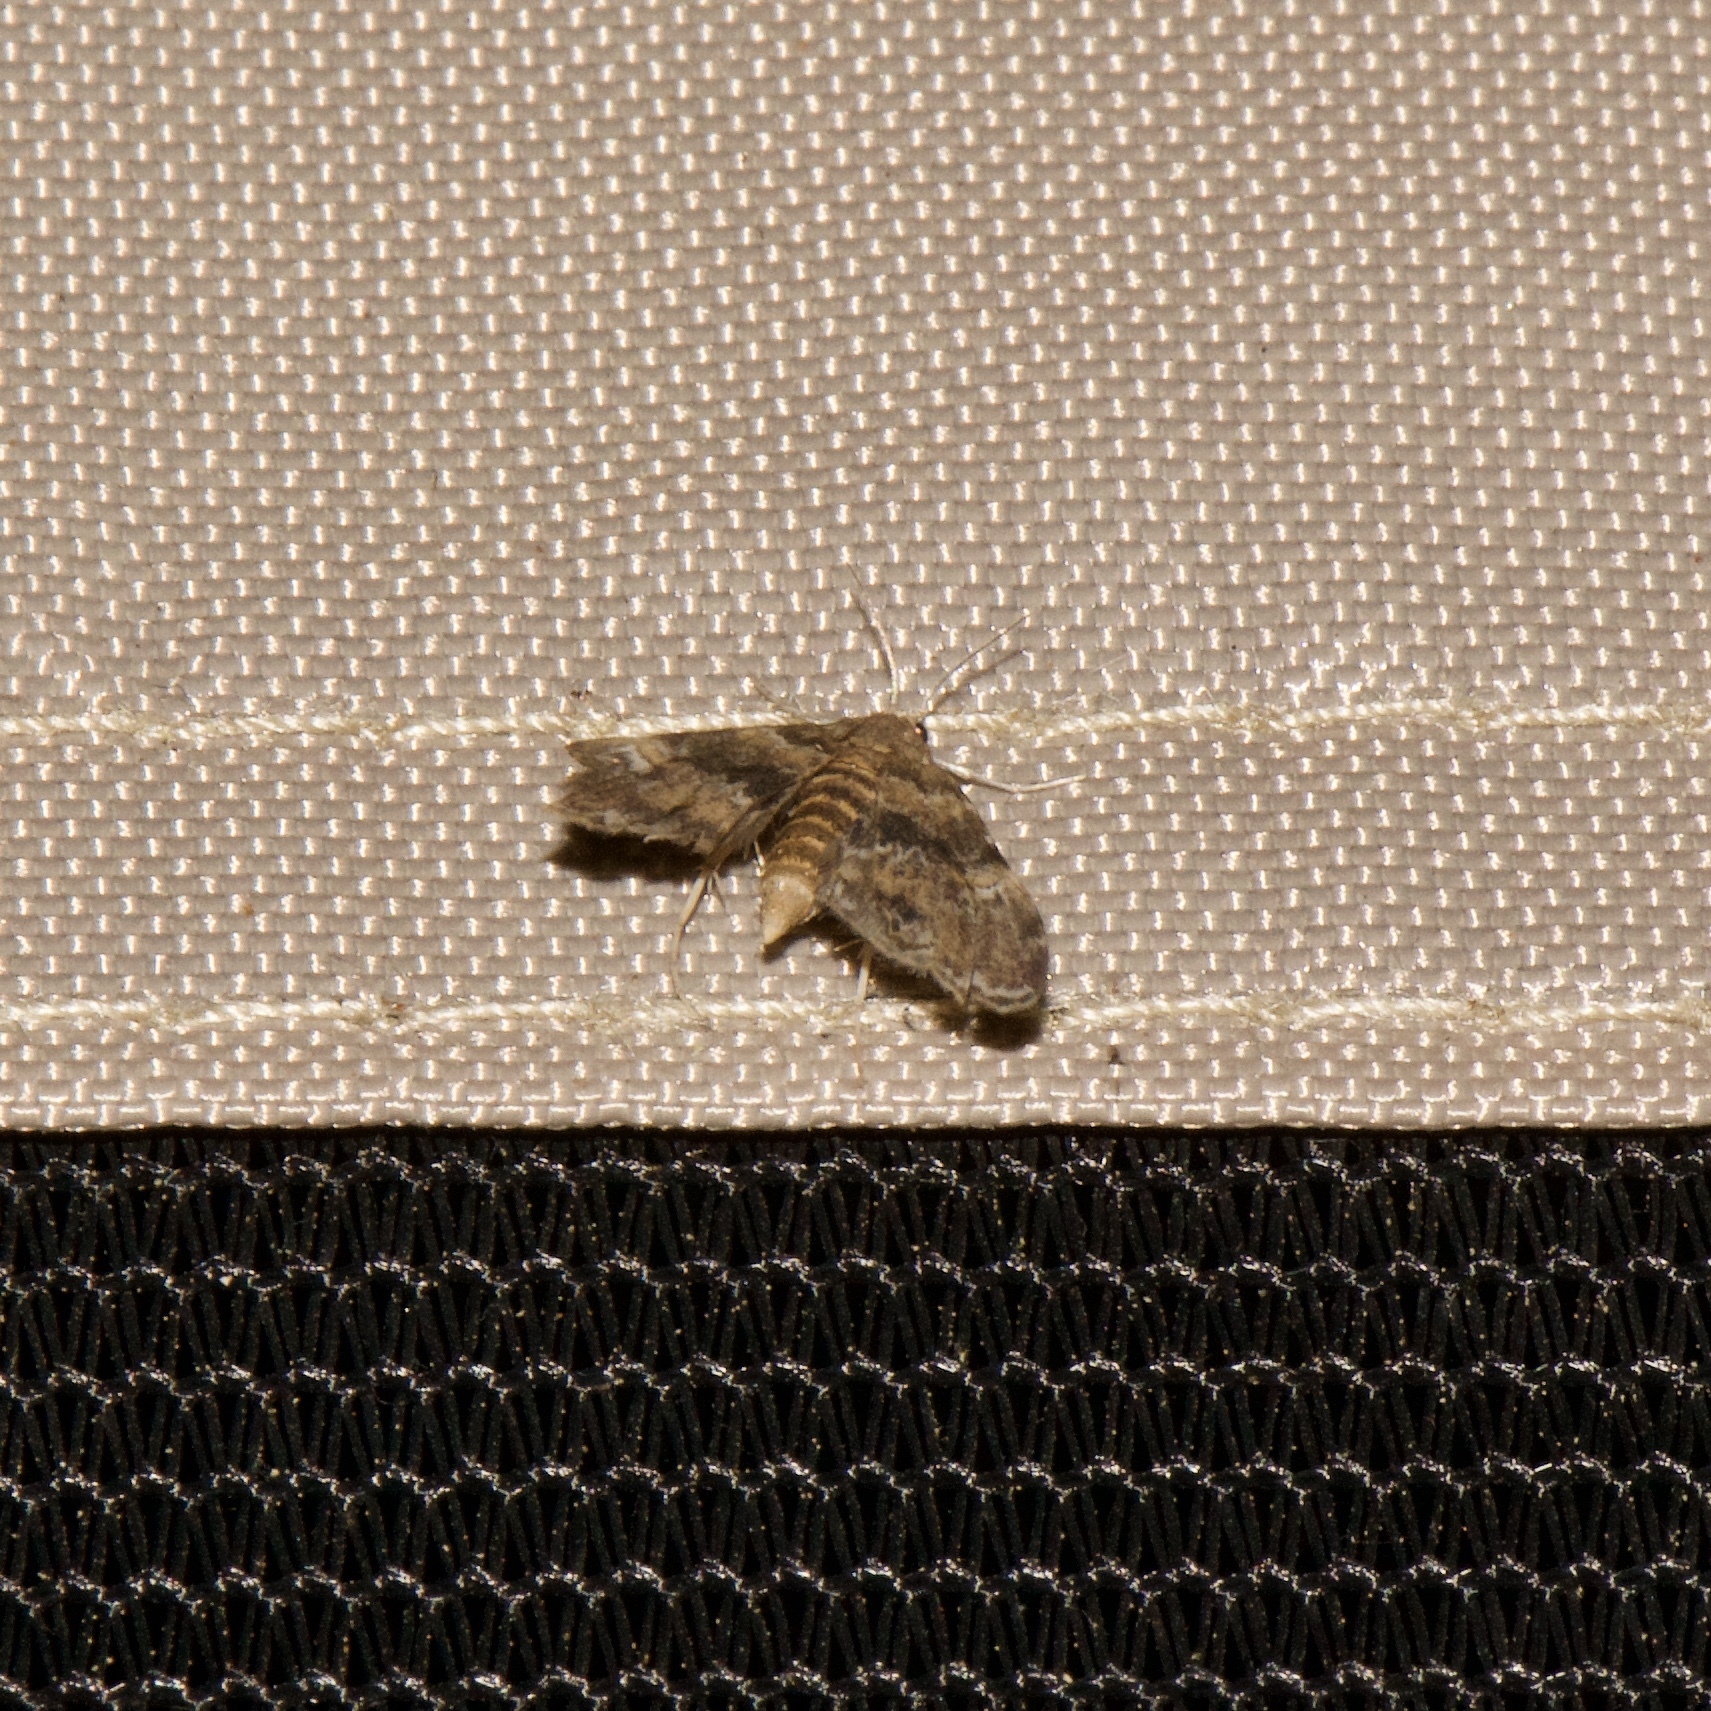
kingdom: Animalia
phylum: Arthropoda
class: Insecta
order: Lepidoptera
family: Crambidae
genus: Elophila
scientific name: Elophila obliteralis
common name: Waterlily leafcutter moth
